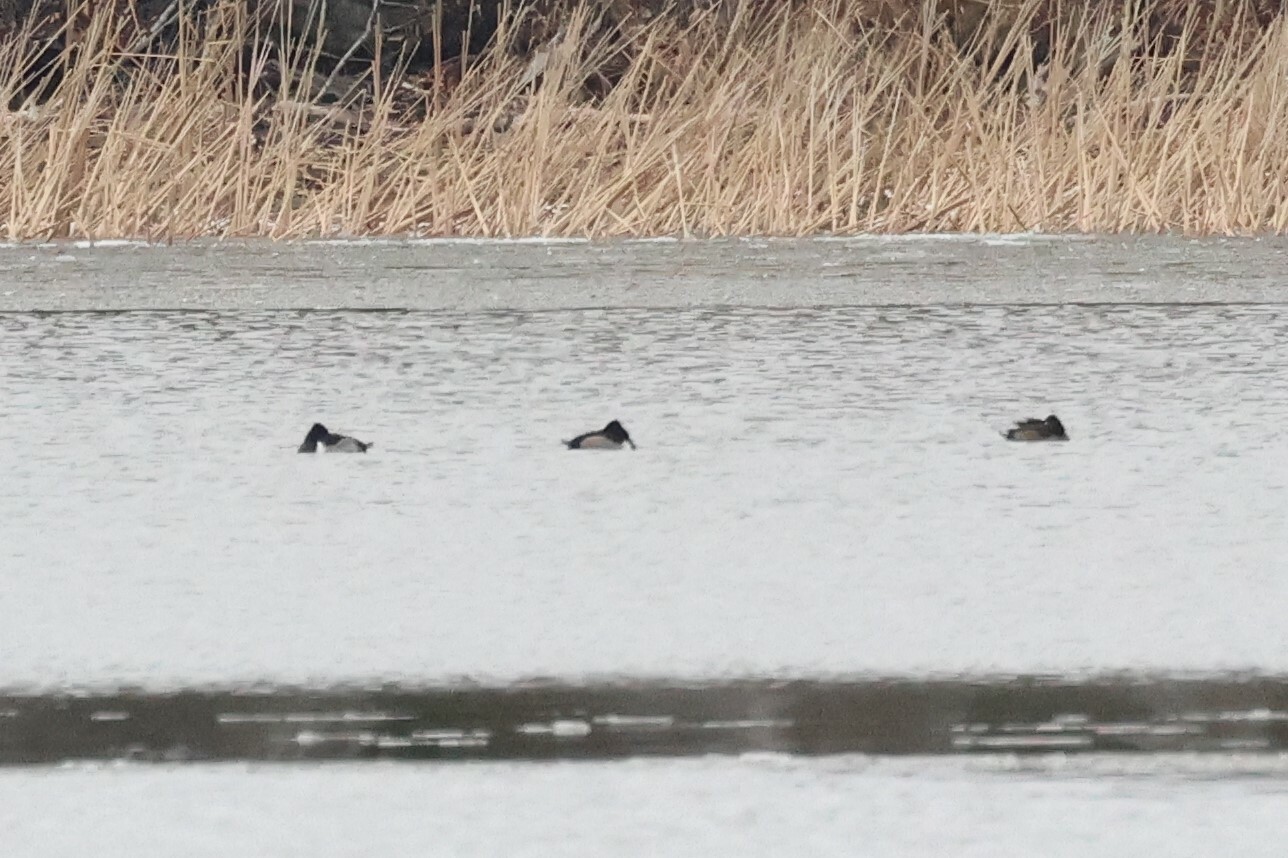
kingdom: Animalia
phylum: Chordata
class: Aves
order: Anseriformes
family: Anatidae
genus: Aythya
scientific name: Aythya collaris
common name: Ring-necked duck
